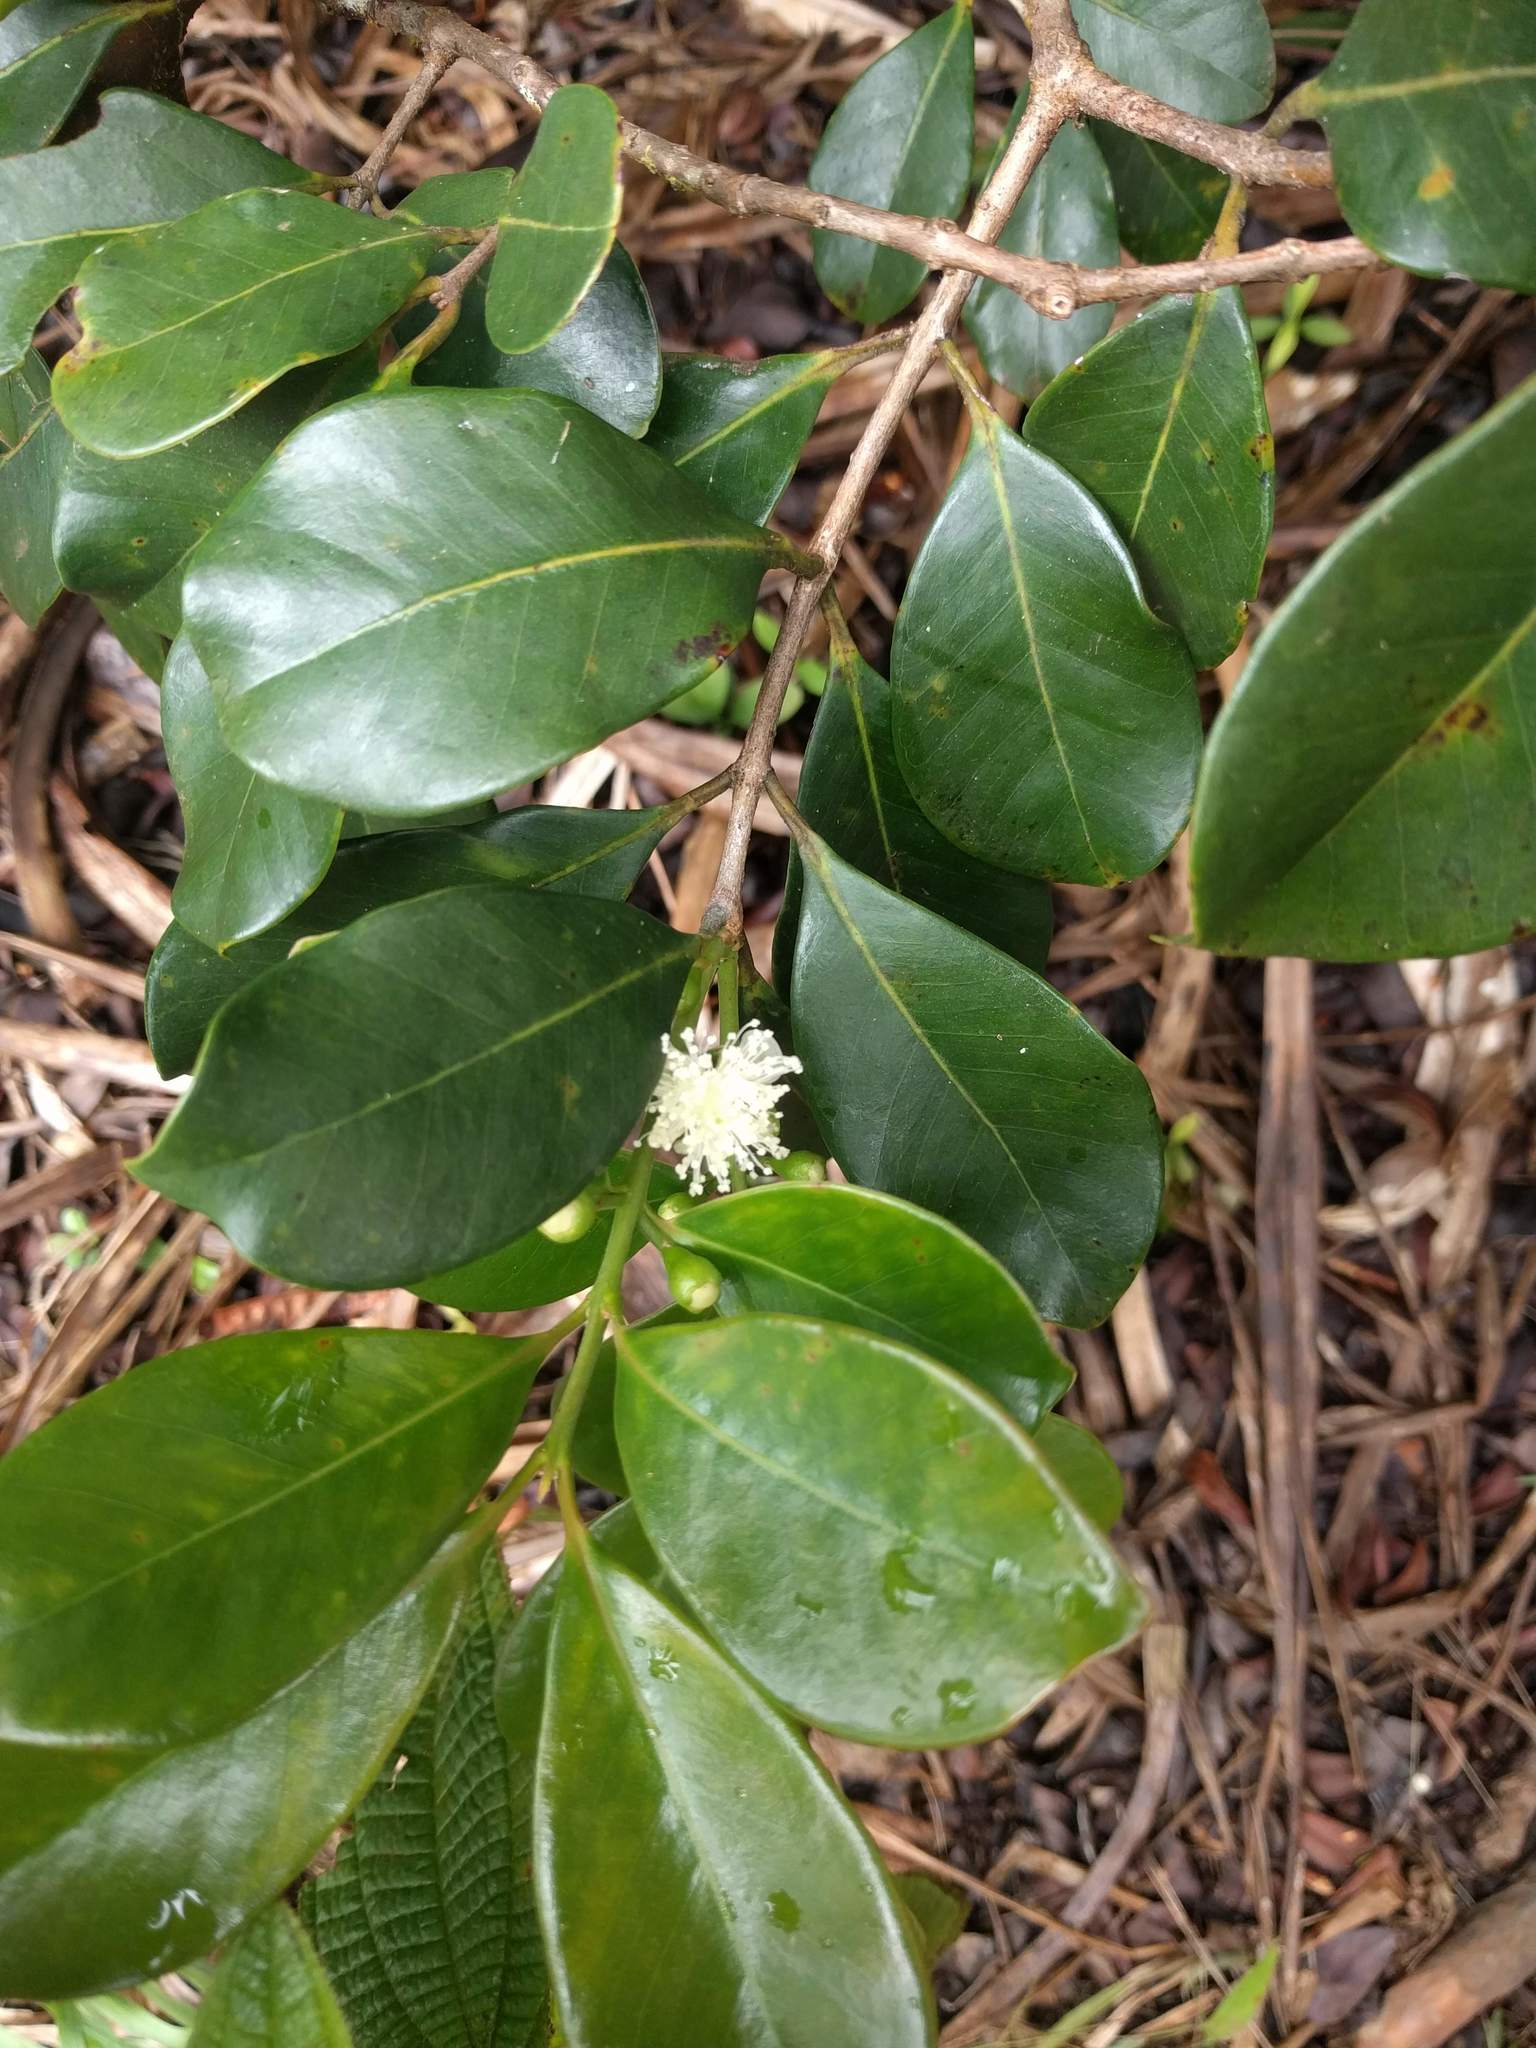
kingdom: Plantae
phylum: Tracheophyta
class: Magnoliopsida
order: Myrtales
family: Myrtaceae
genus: Psidium
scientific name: Psidium cattleianum
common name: Strawberry guava
